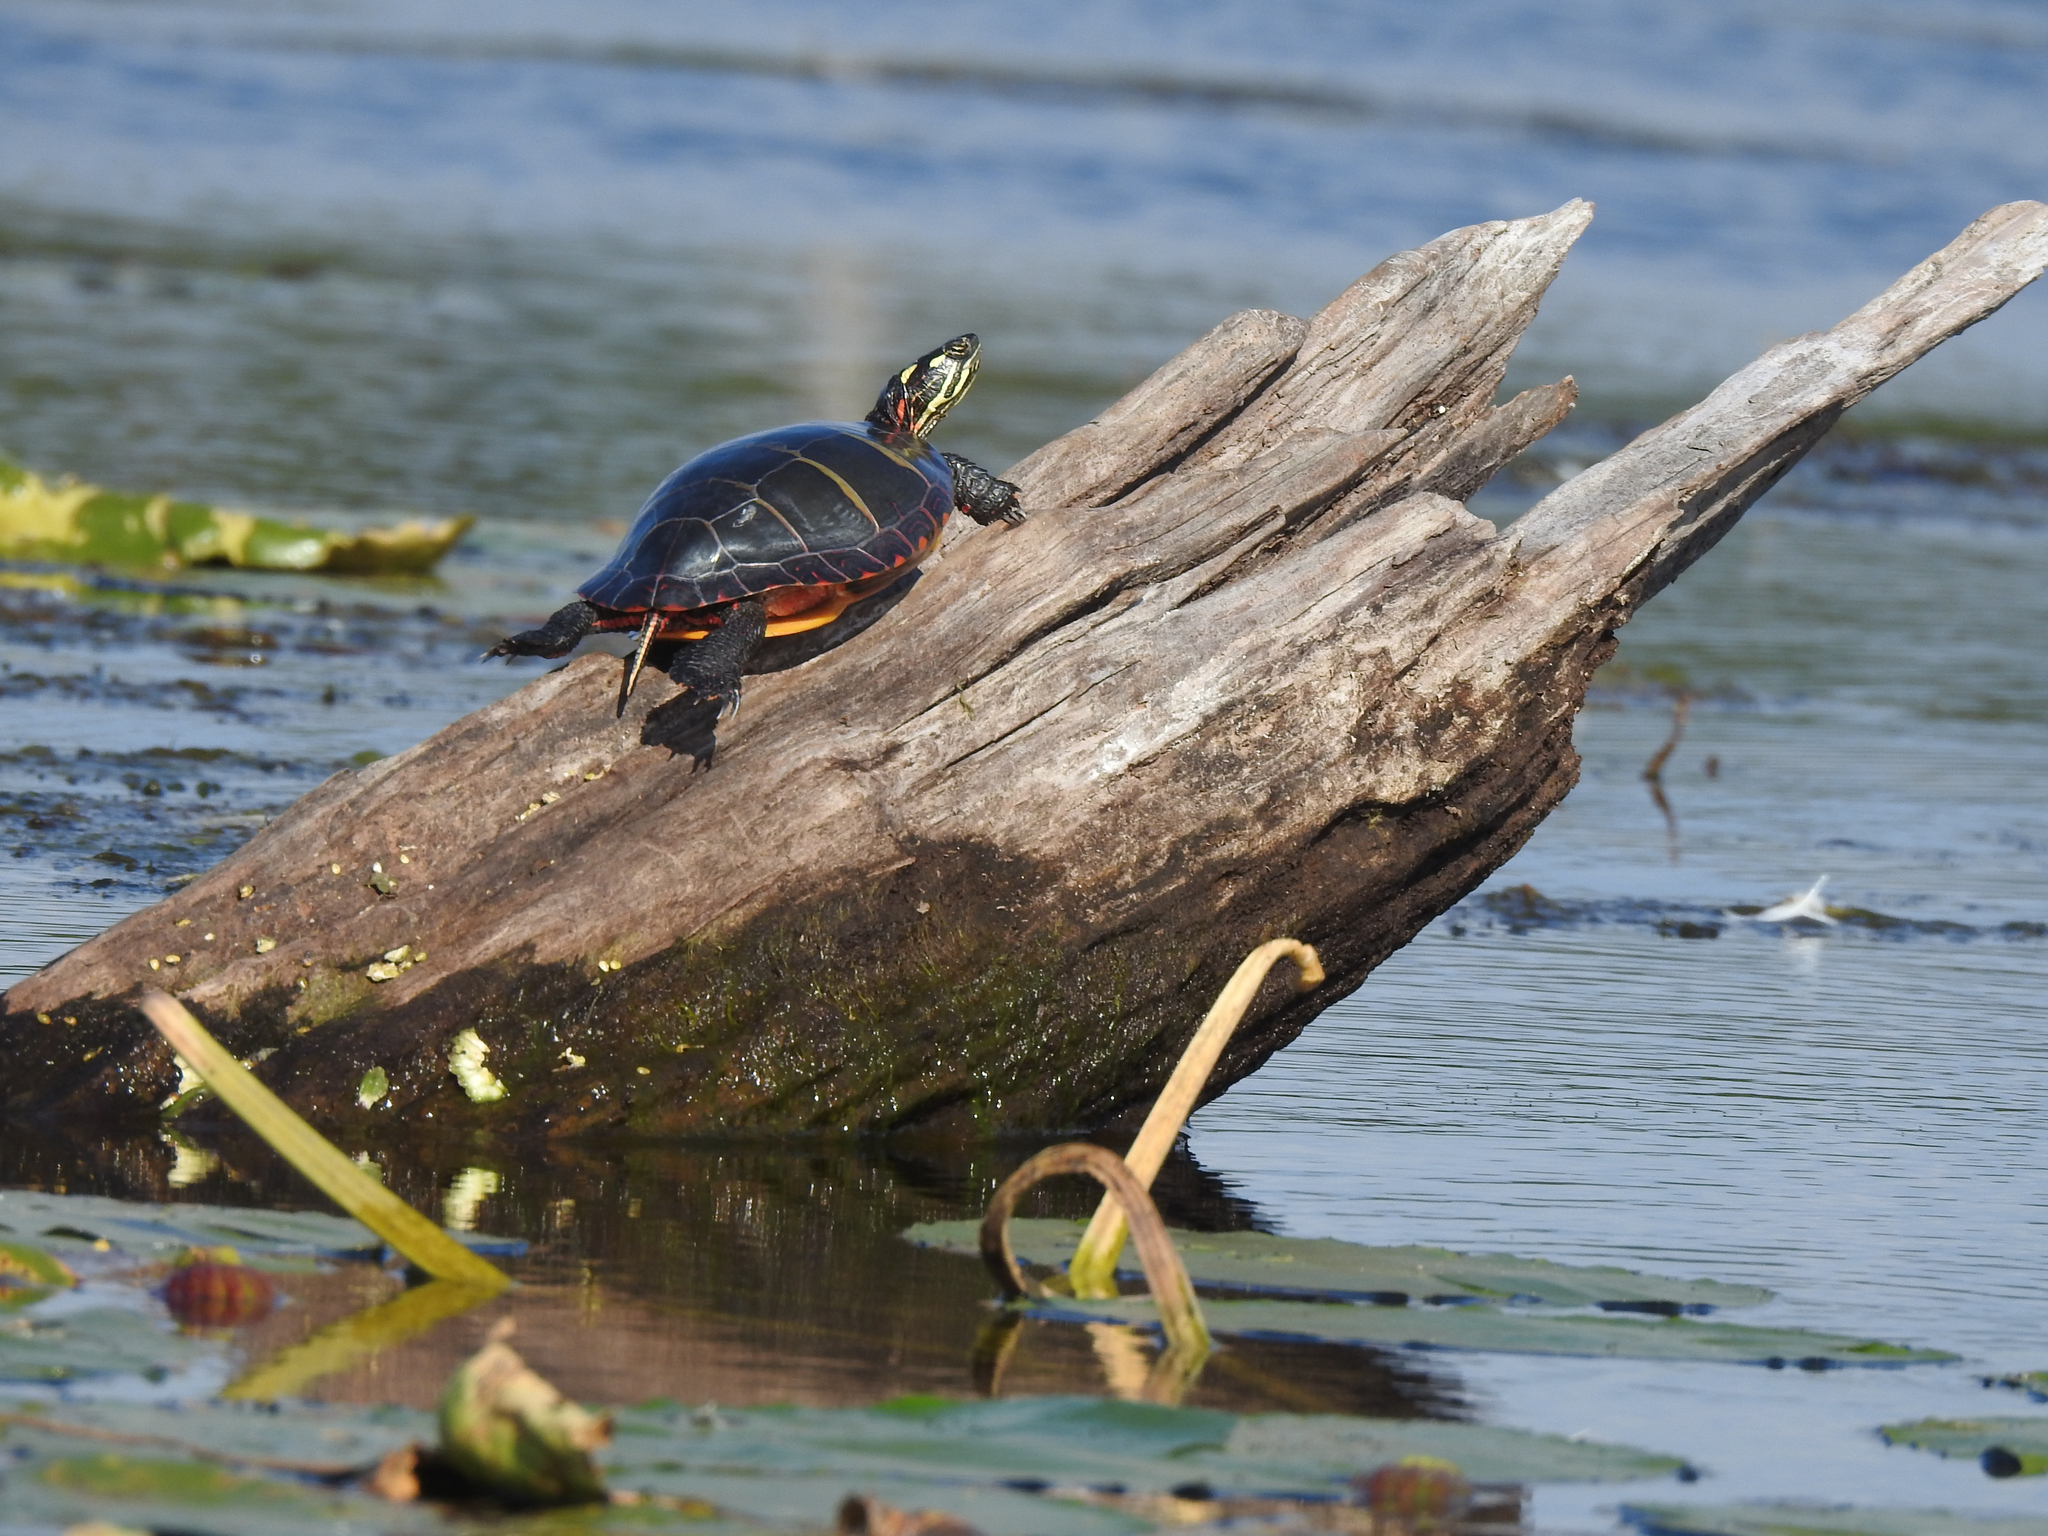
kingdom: Animalia
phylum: Chordata
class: Testudines
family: Emydidae
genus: Chrysemys
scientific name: Chrysemys picta
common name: Painted turtle
